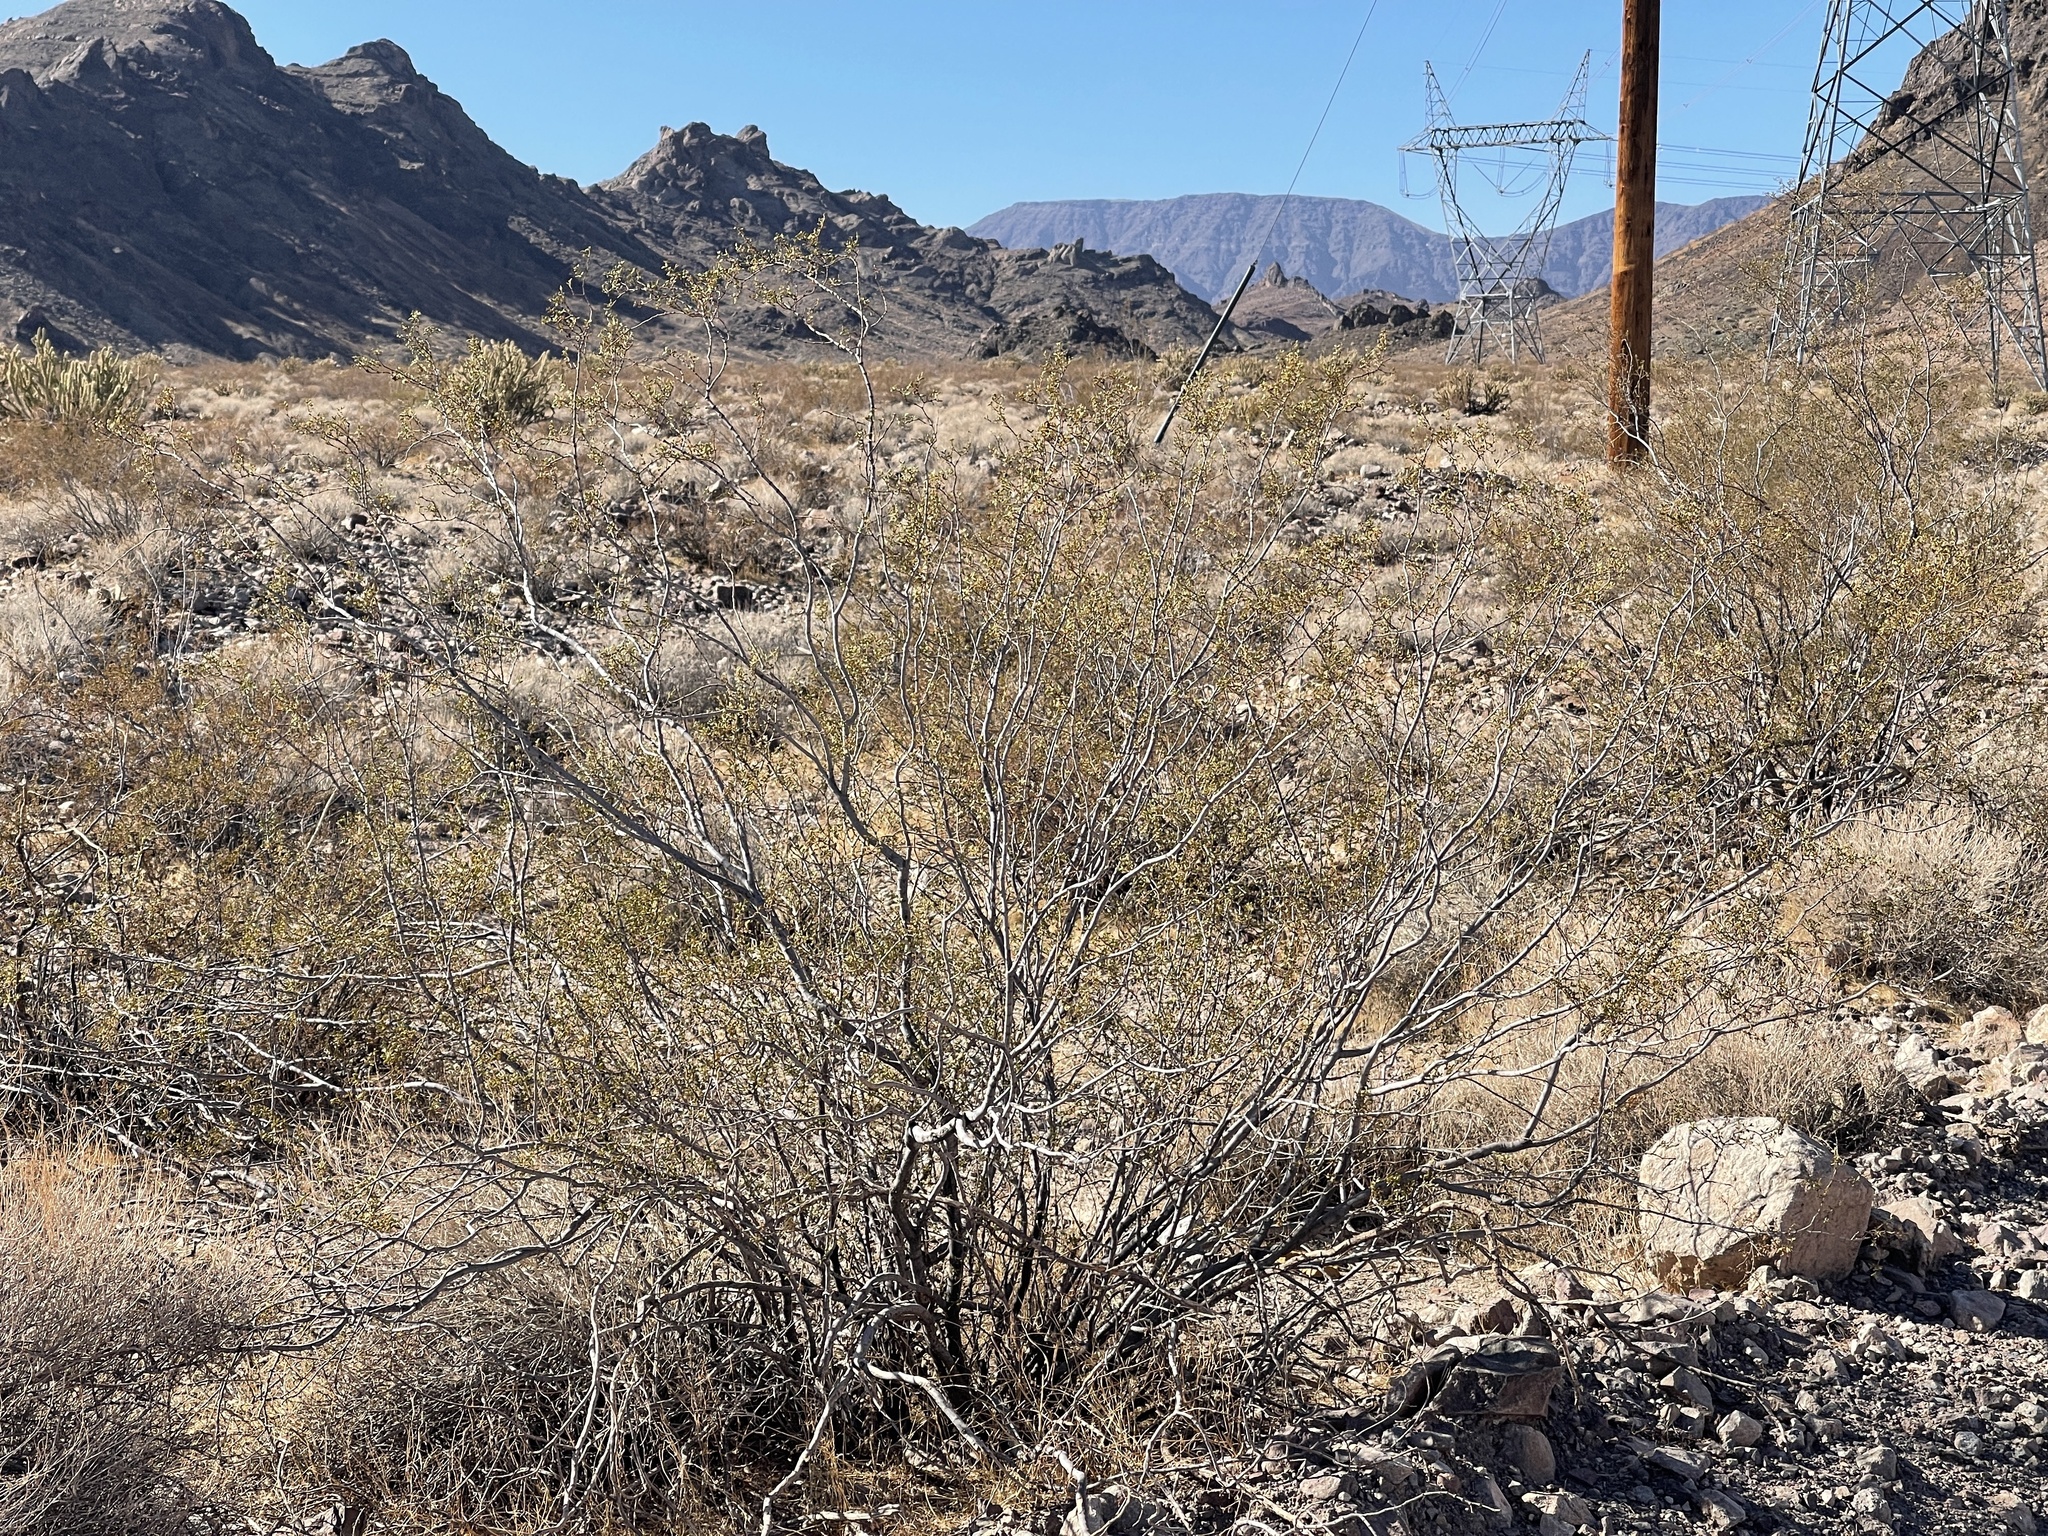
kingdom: Plantae
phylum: Tracheophyta
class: Magnoliopsida
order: Zygophyllales
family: Zygophyllaceae
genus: Larrea
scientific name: Larrea tridentata
